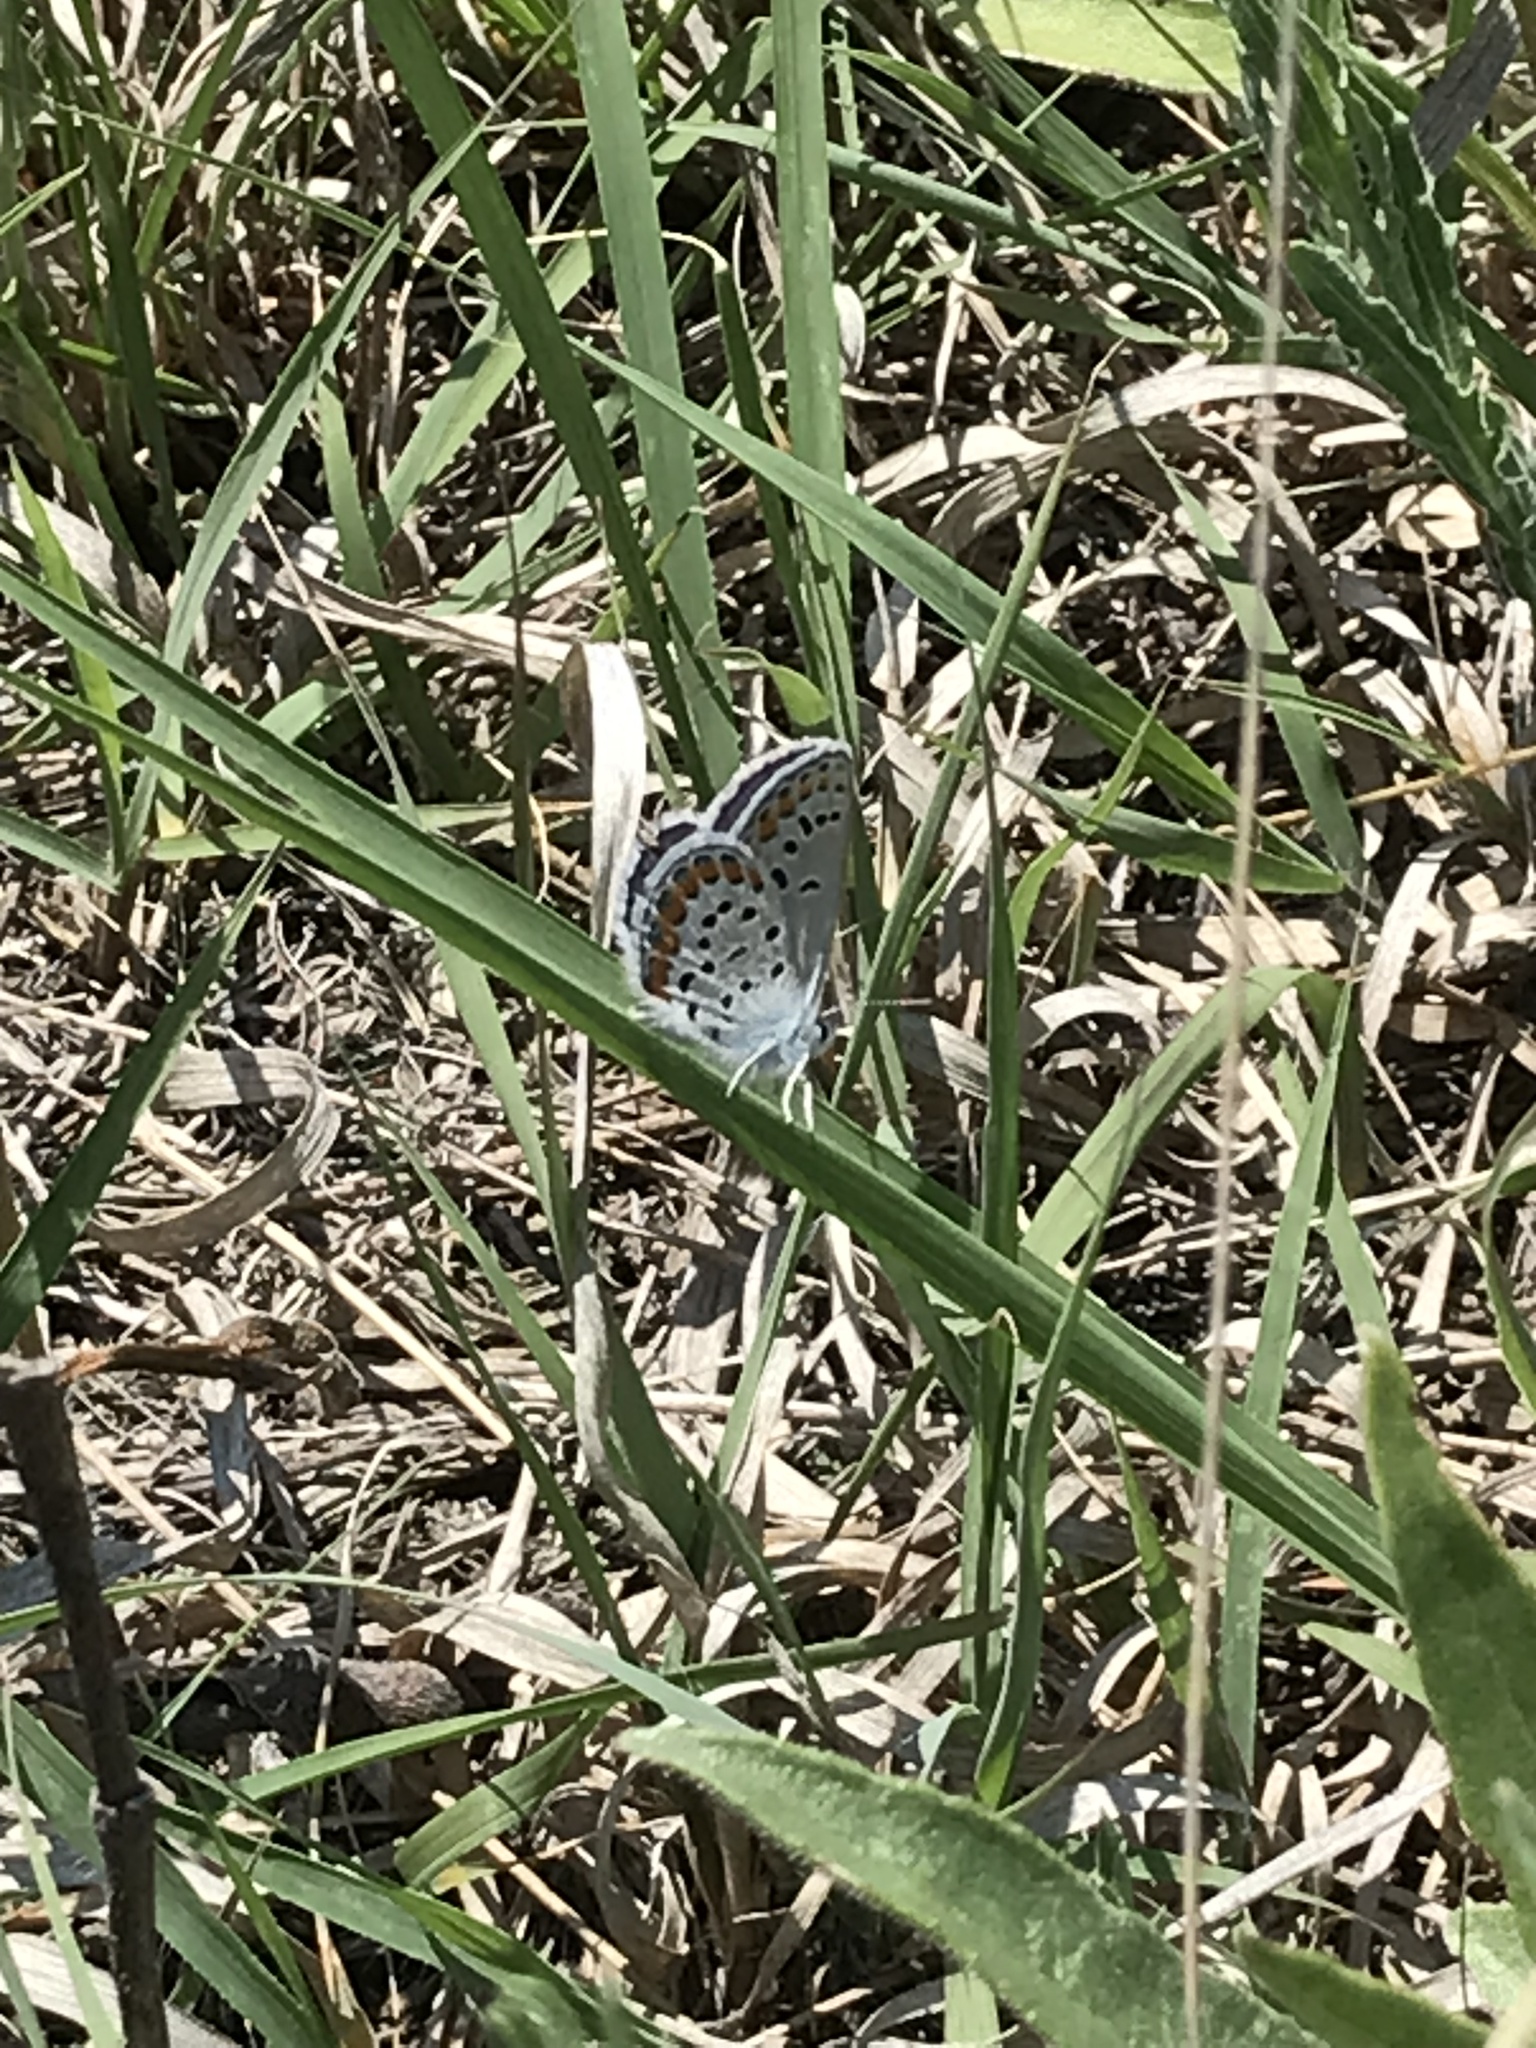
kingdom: Animalia
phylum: Arthropoda
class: Insecta
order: Lepidoptera
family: Lycaenidae
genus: Lycaeides
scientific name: Lycaeides melissa
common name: Melissa blue
